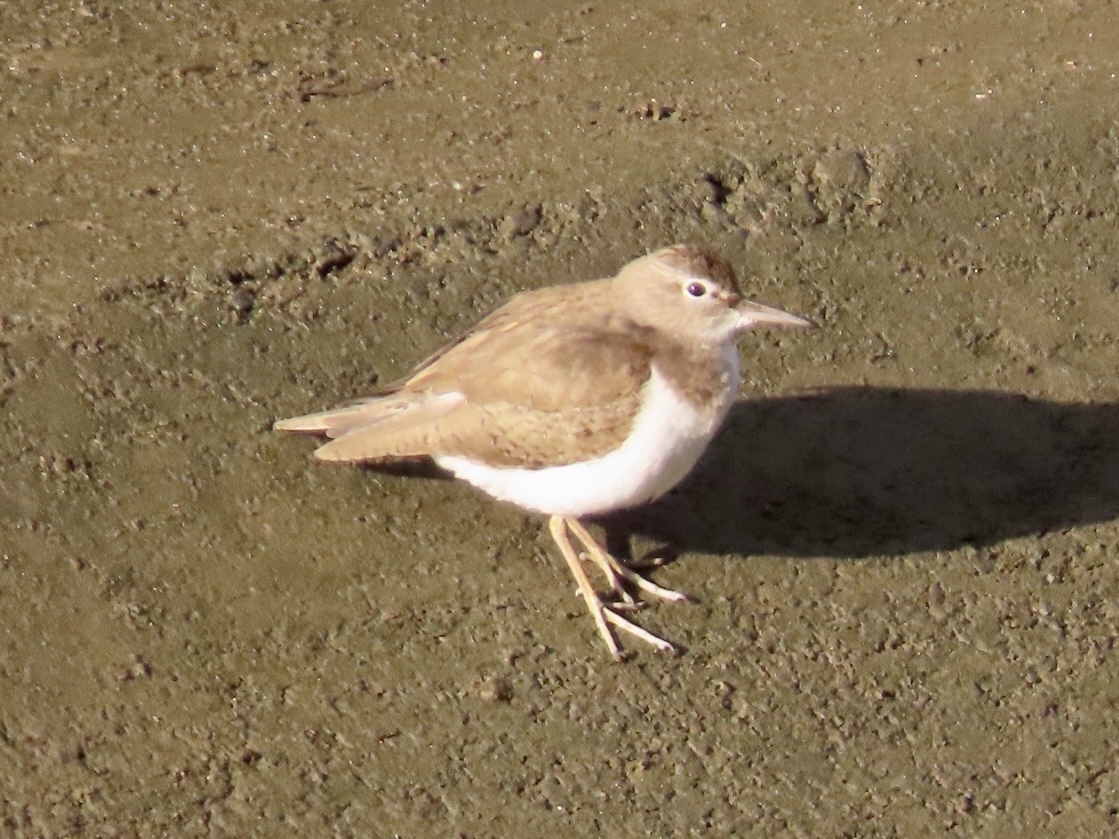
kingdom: Animalia
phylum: Chordata
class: Aves
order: Charadriiformes
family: Scolopacidae
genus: Actitis
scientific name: Actitis hypoleucos
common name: Common sandpiper
